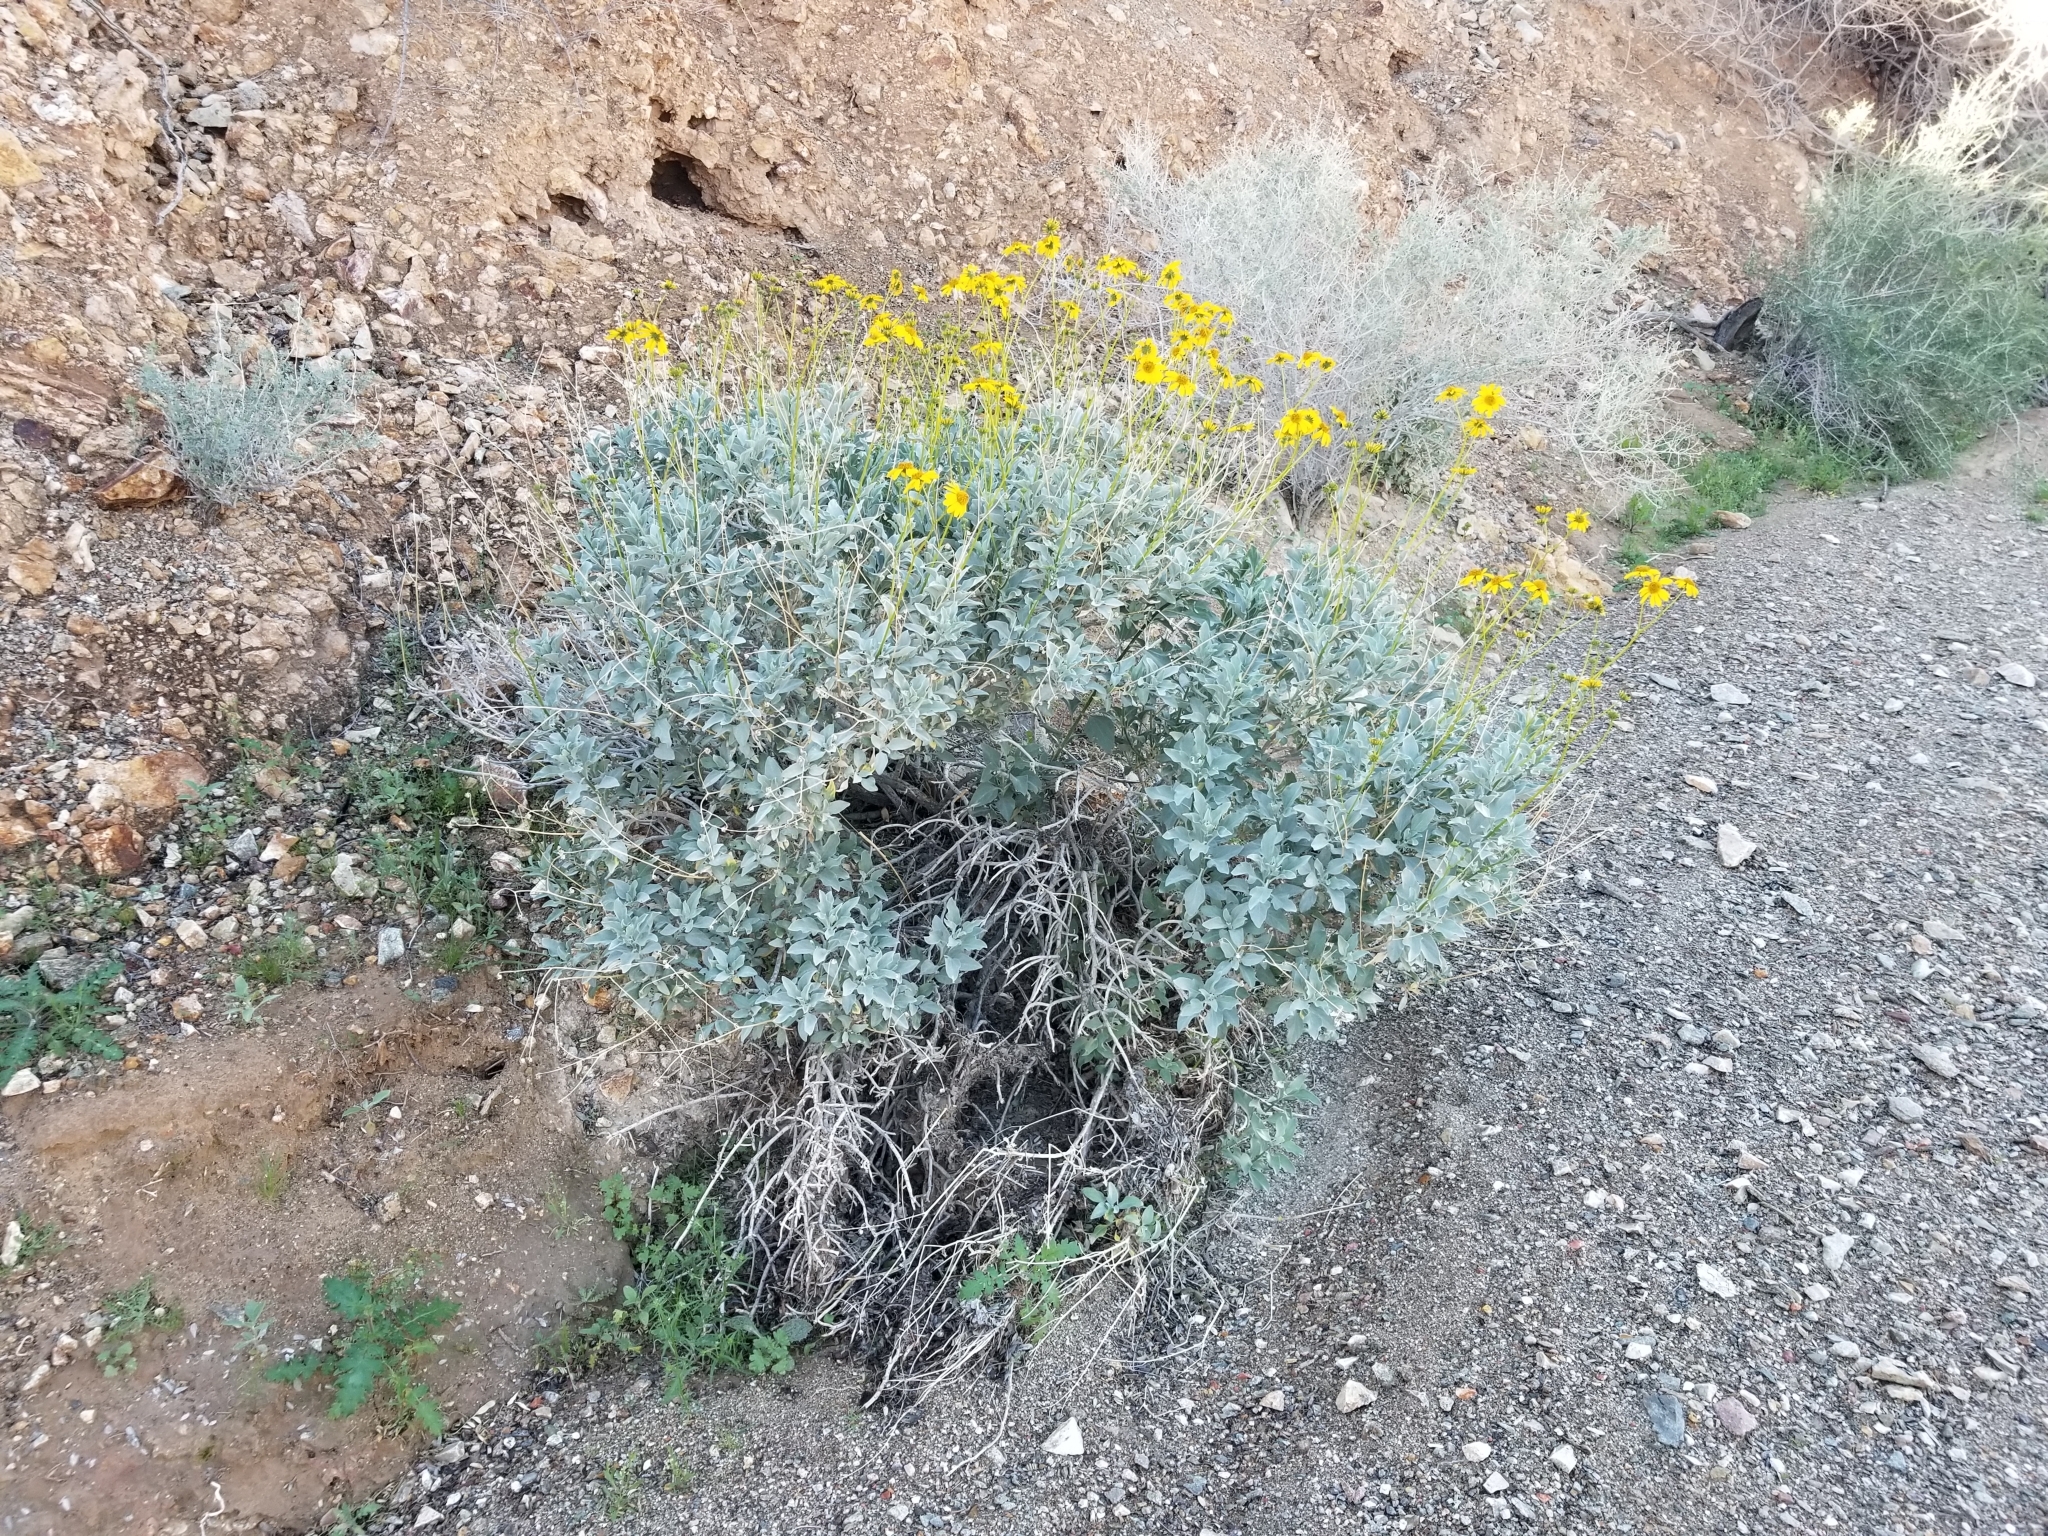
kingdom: Plantae
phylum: Tracheophyta
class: Magnoliopsida
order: Asterales
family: Asteraceae
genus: Encelia
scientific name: Encelia farinosa
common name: Brittlebush
